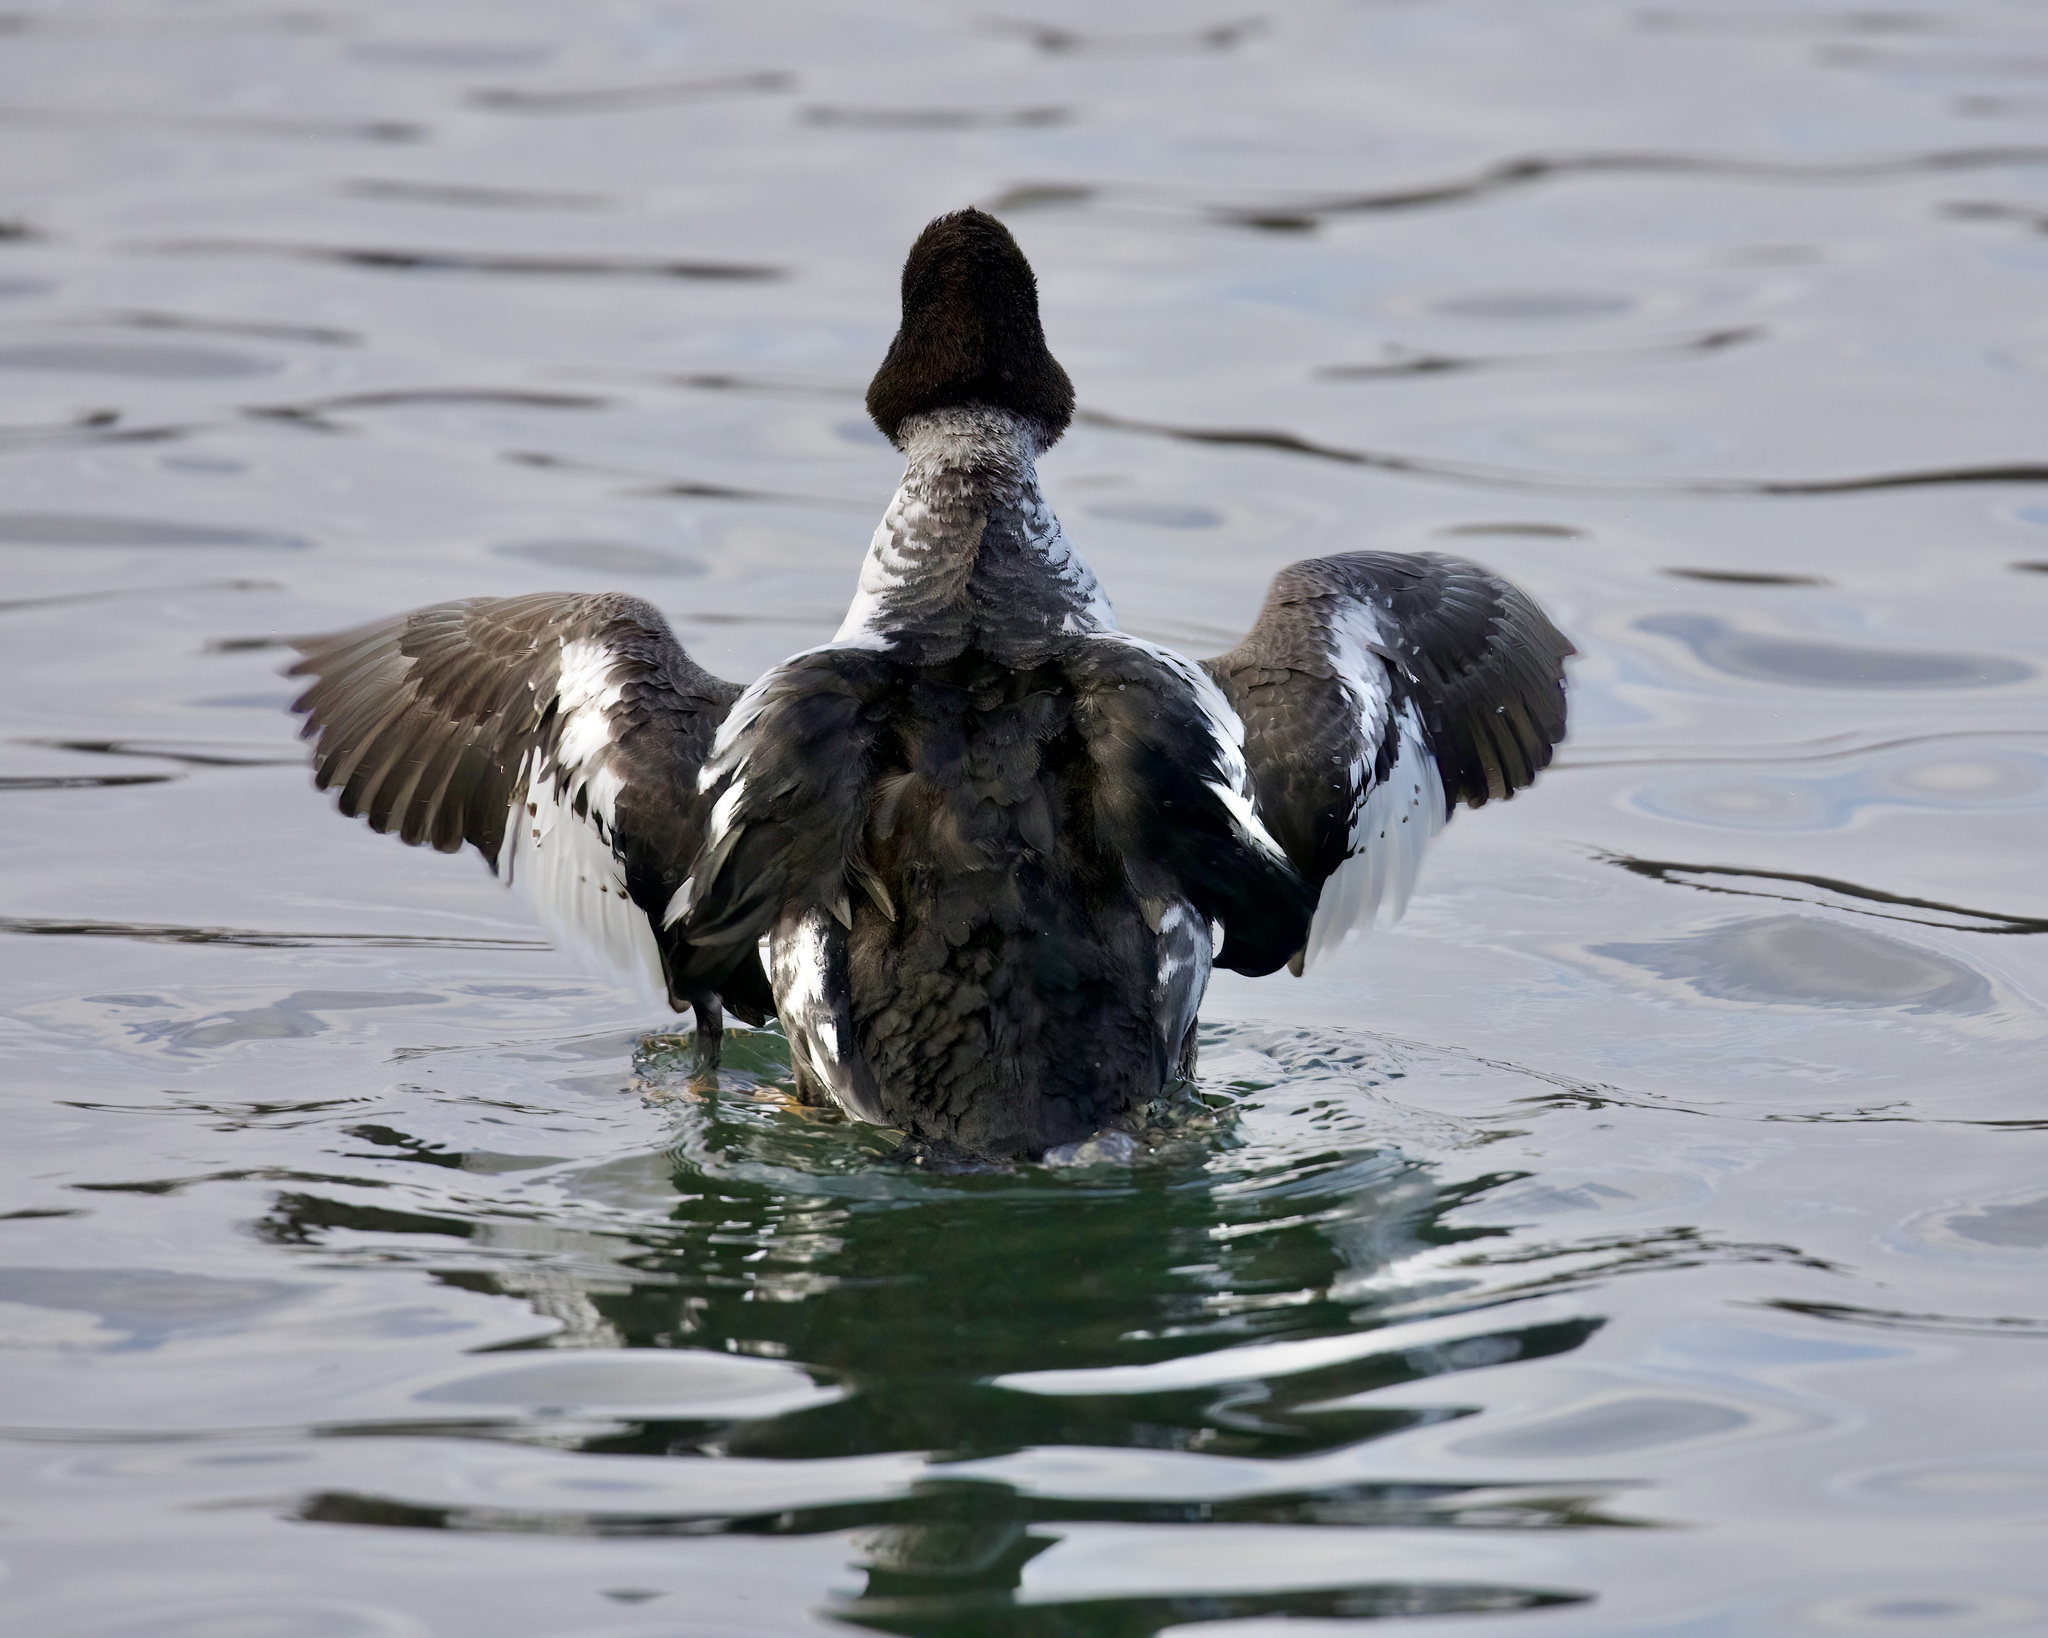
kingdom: Animalia
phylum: Chordata
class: Aves
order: Anseriformes
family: Anatidae
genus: Bucephala
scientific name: Bucephala clangula
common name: Common goldeneye
